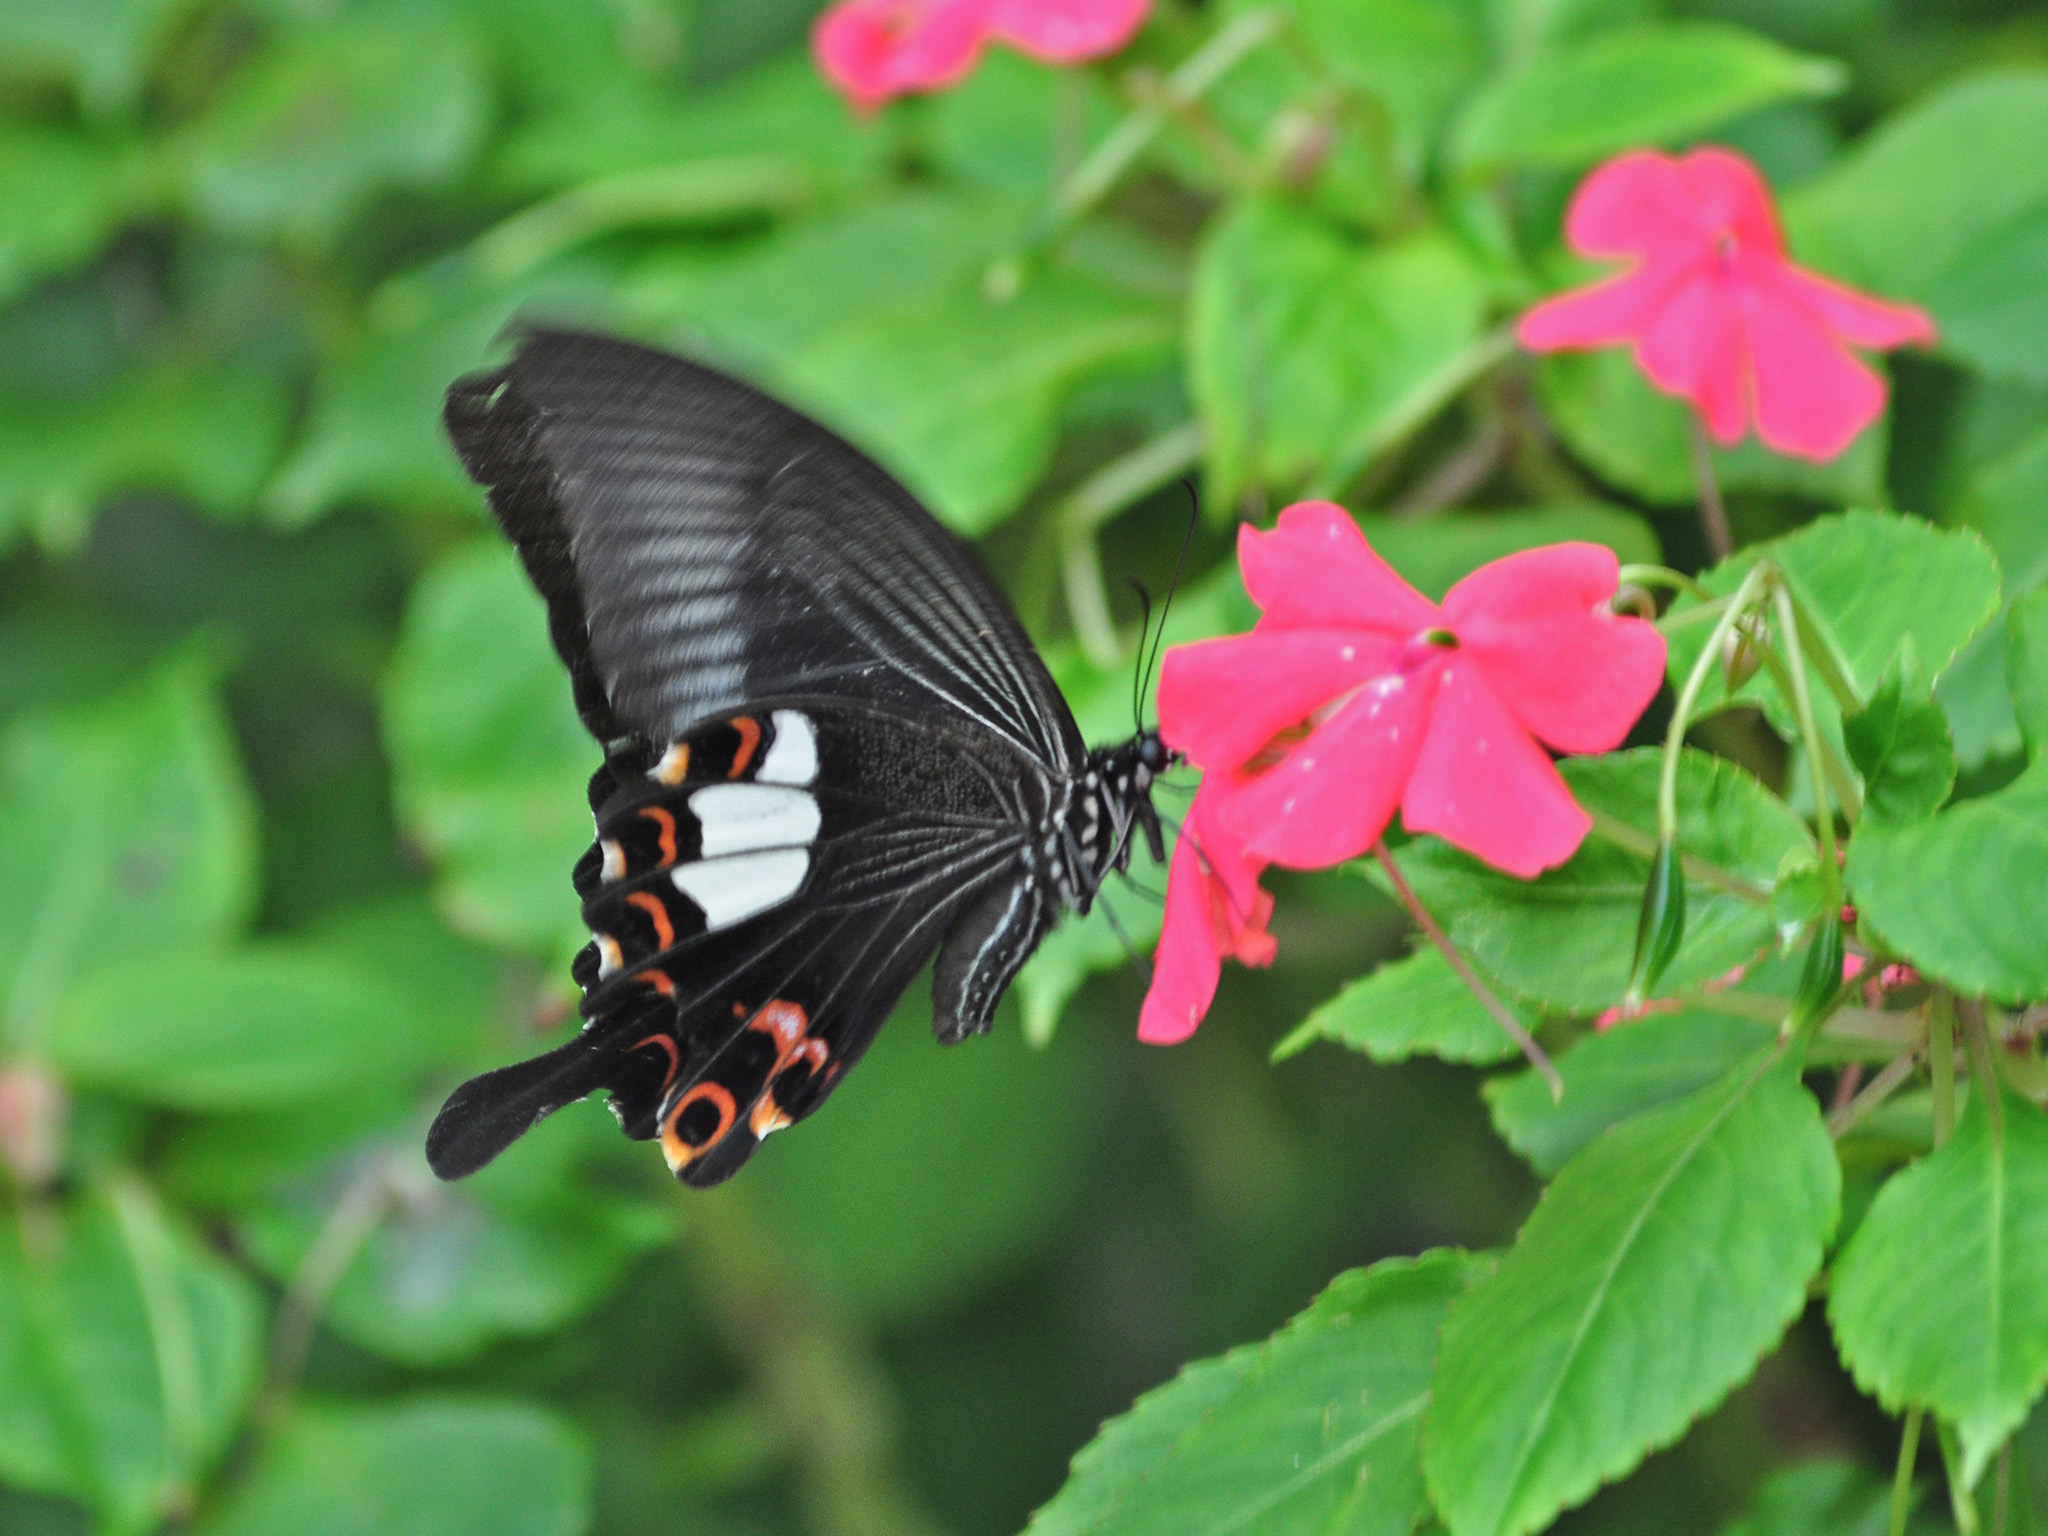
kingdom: Animalia
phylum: Arthropoda
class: Insecta
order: Lepidoptera
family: Papilionidae
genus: Papilio
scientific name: Papilio helenus
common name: Red helen
